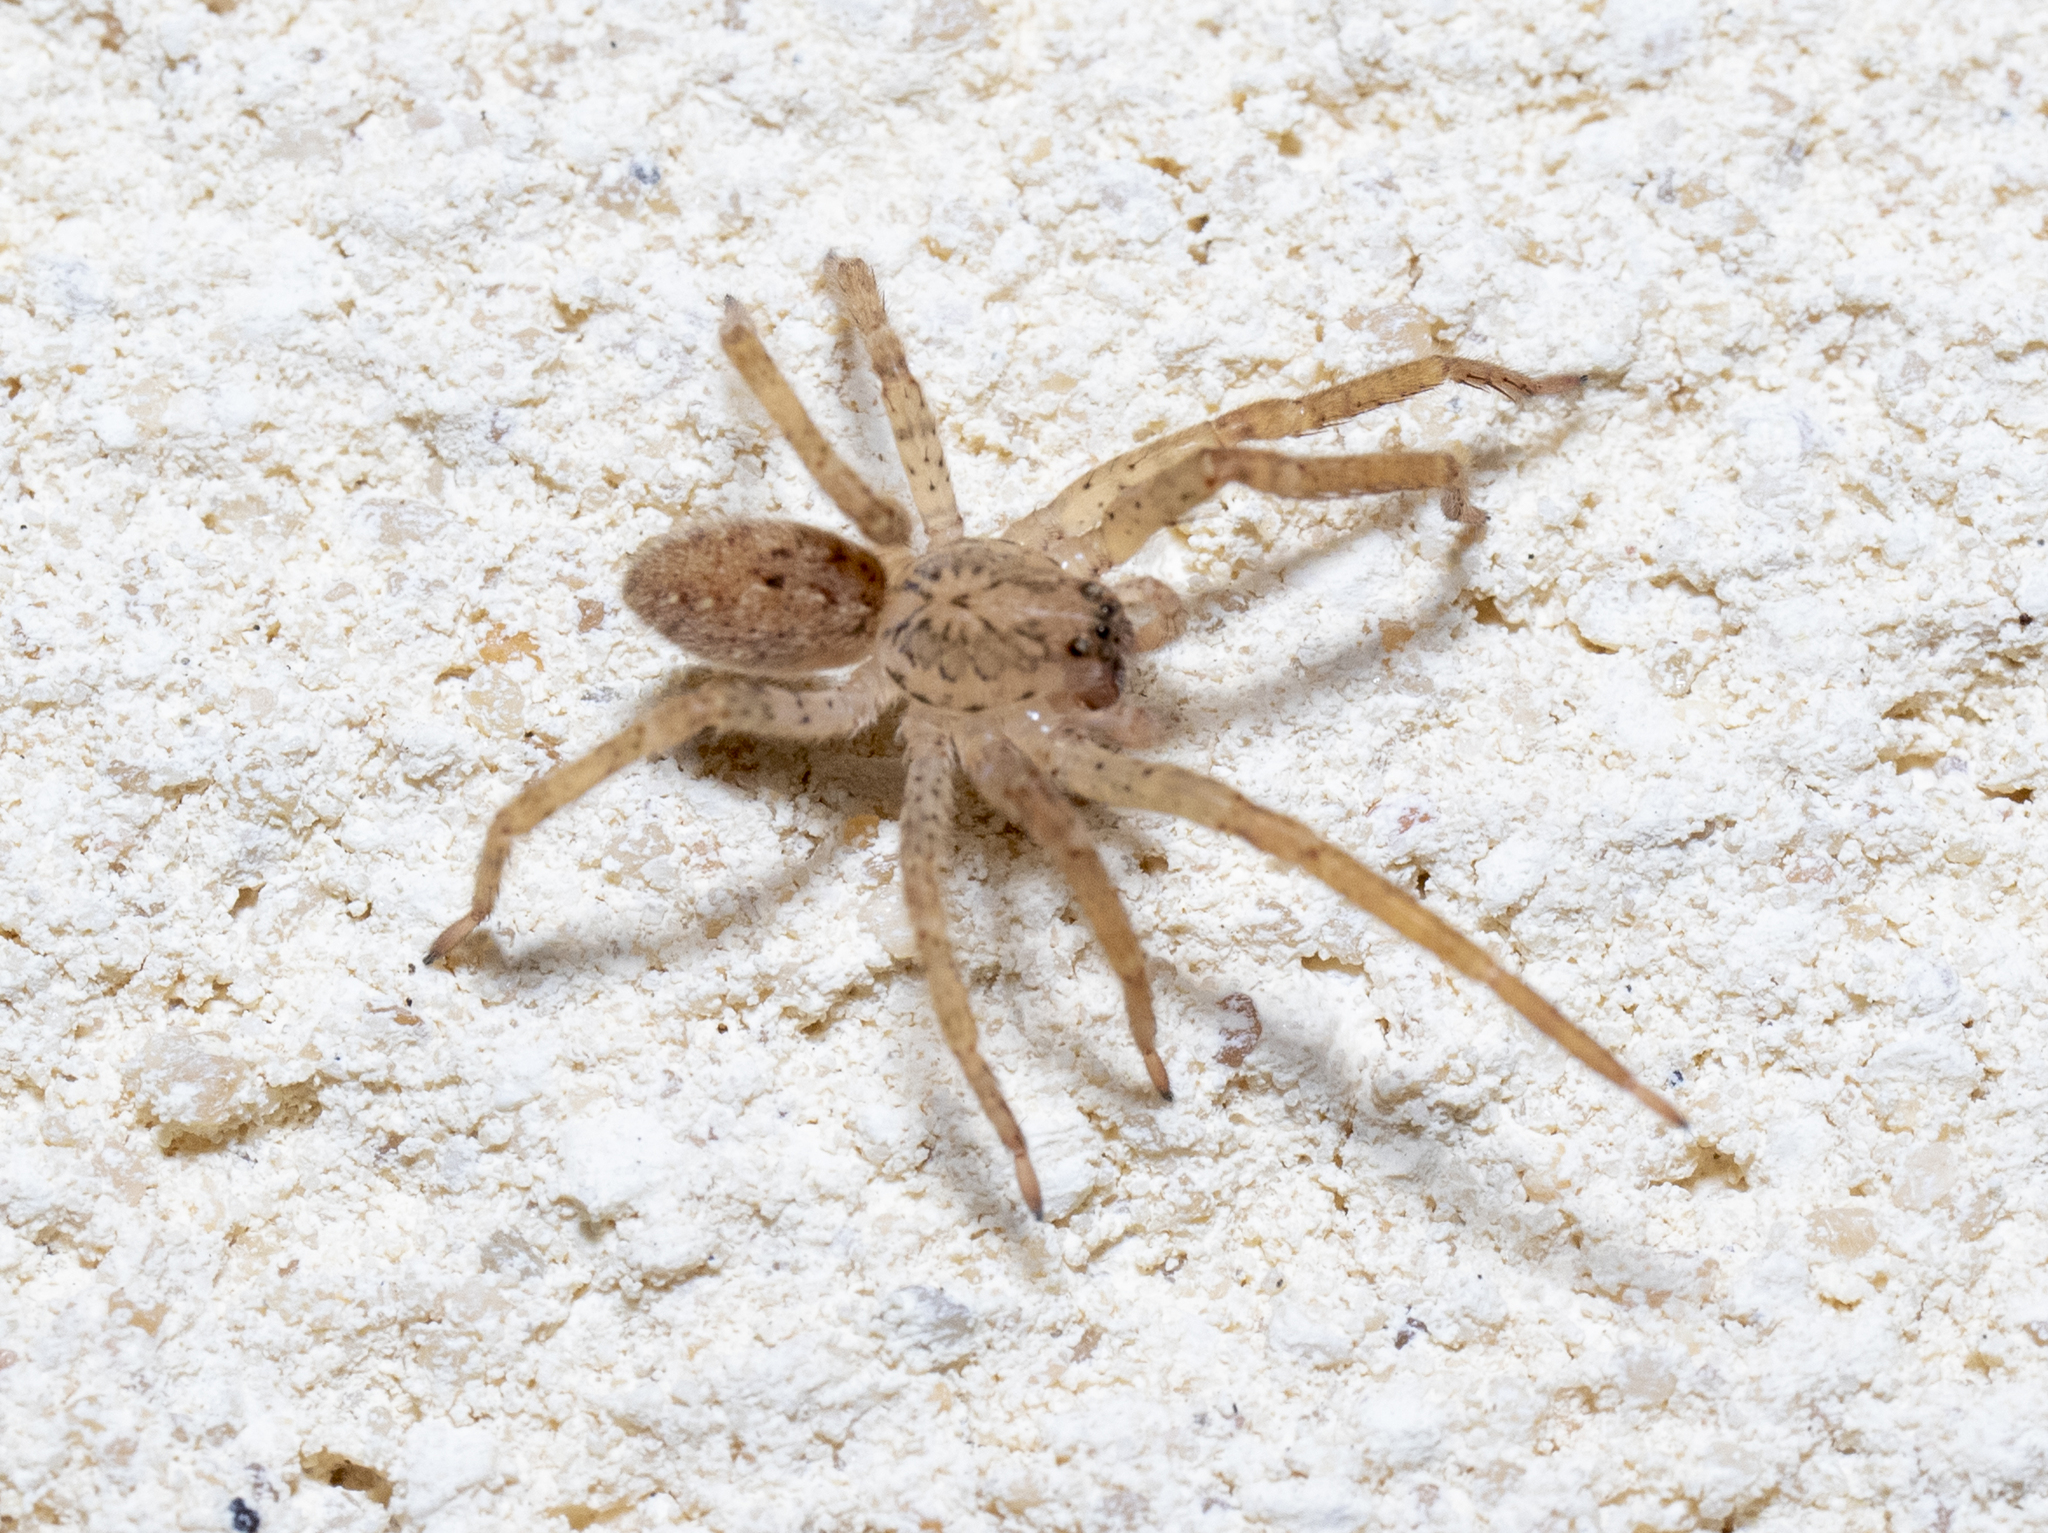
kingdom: Animalia
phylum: Arthropoda
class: Arachnida
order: Araneae
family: Zoropsidae
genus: Zoropsis
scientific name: Zoropsis spinimana
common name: Zoropsid spider
